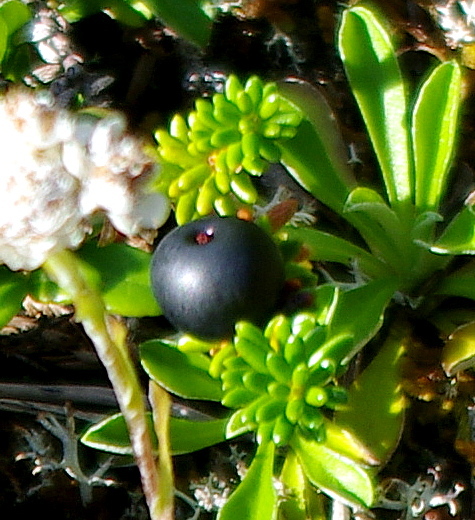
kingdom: Plantae
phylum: Tracheophyta
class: Magnoliopsida
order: Ericales
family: Ericaceae
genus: Empetrum
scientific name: Empetrum nigrum
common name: Black crowberry
